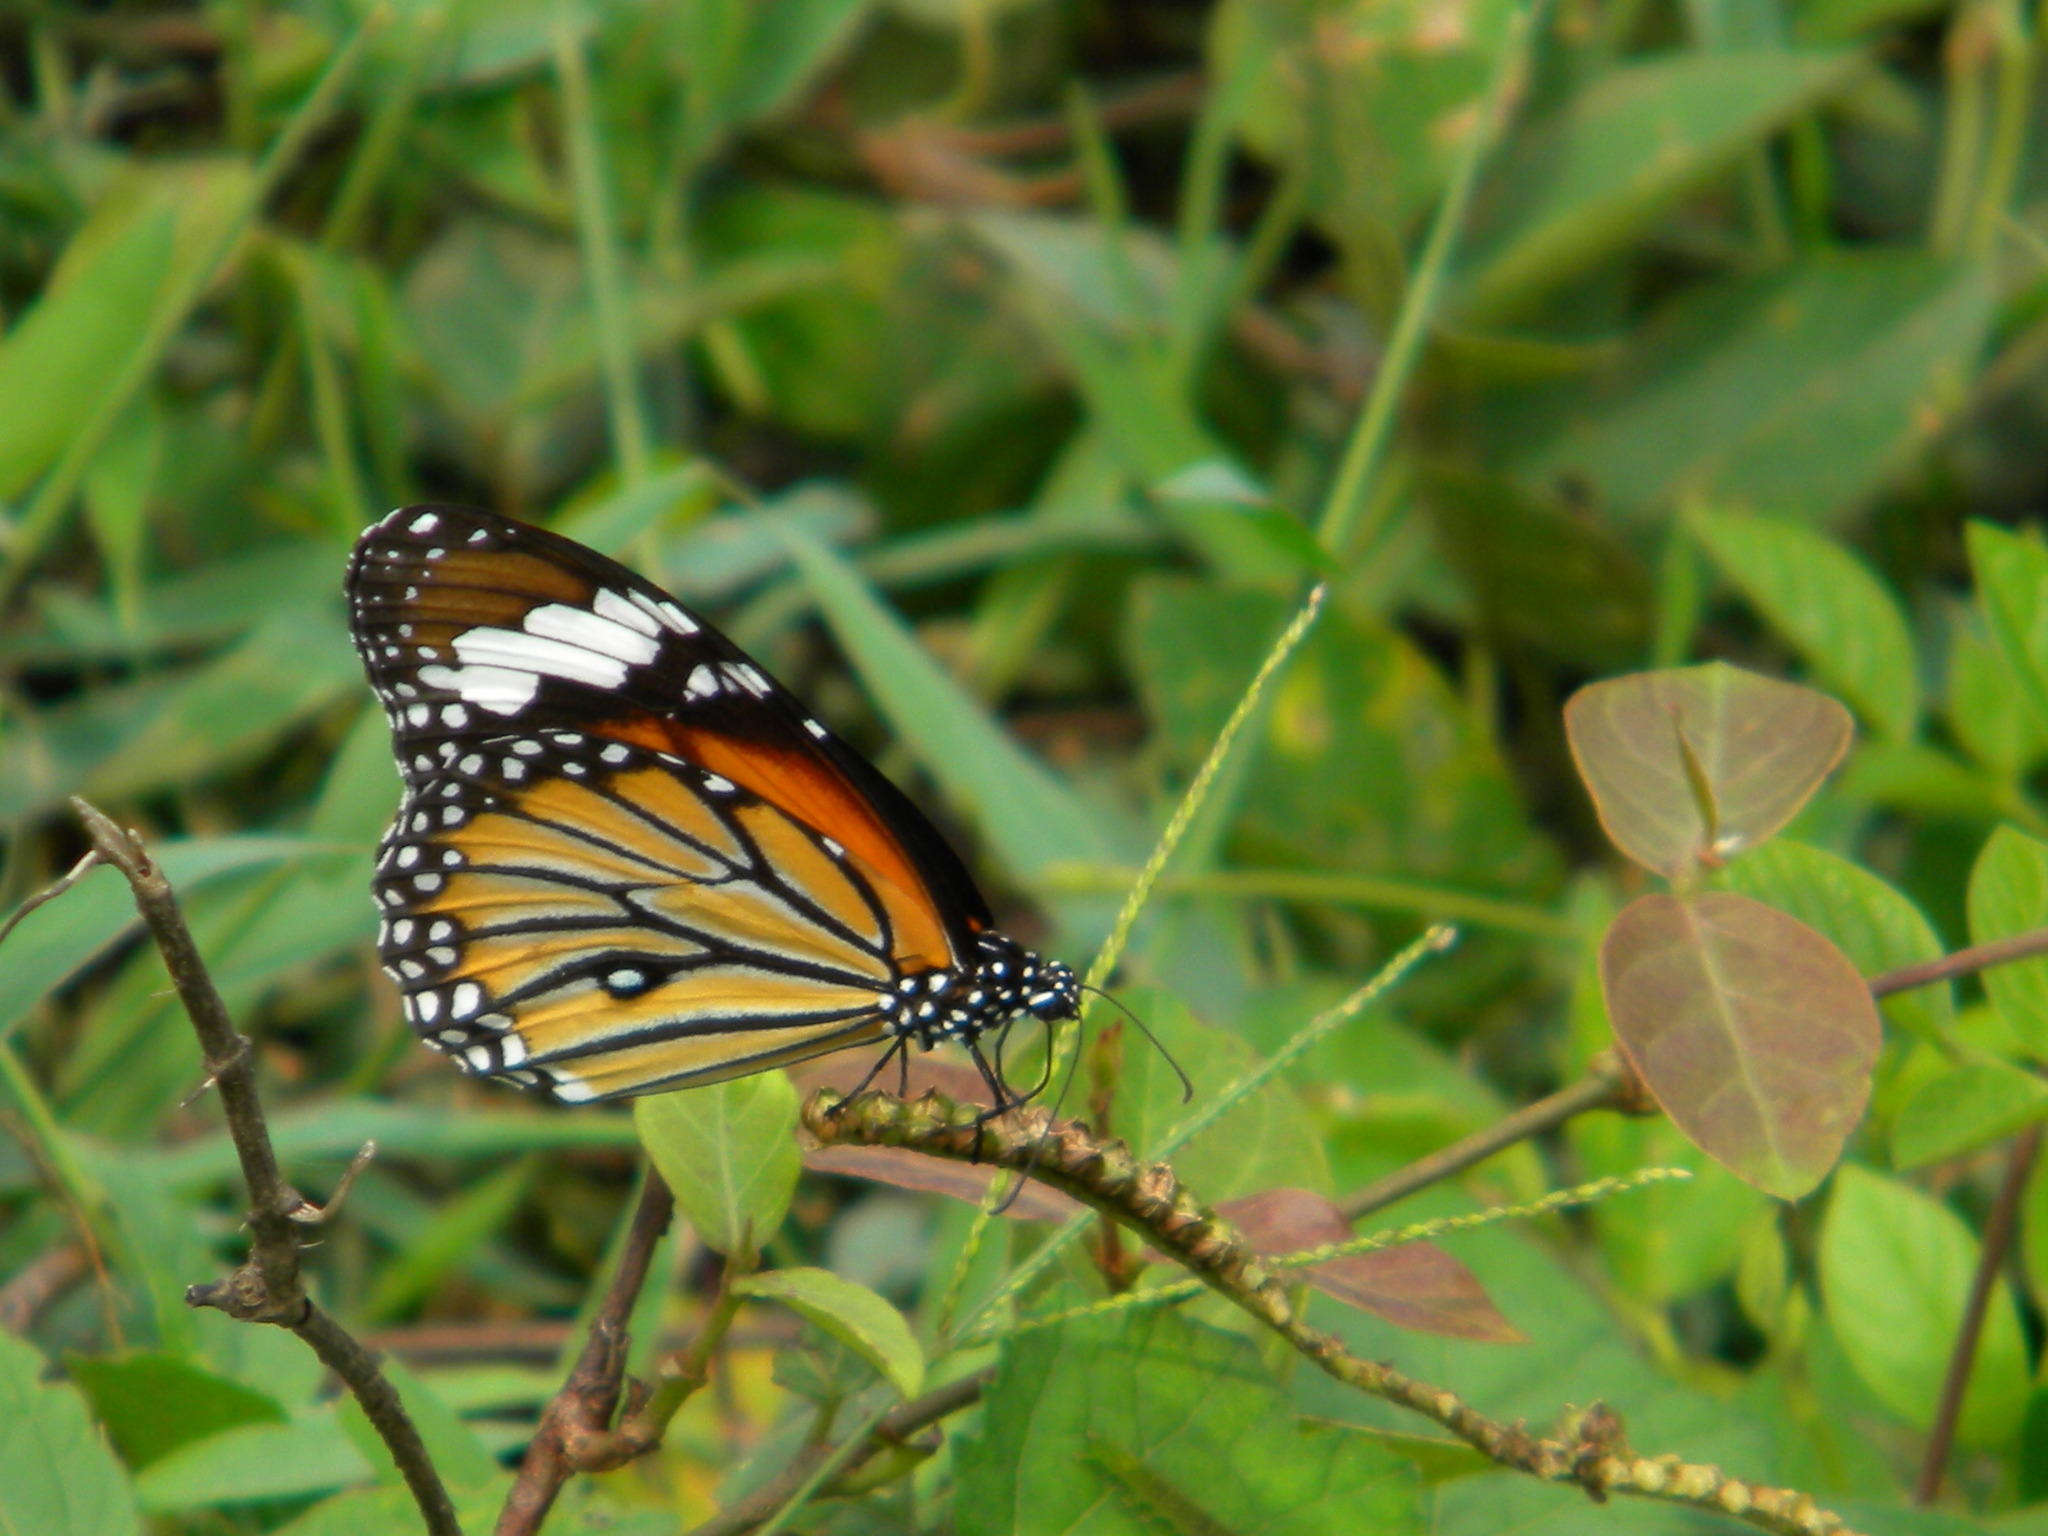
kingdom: Animalia
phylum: Arthropoda
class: Insecta
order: Lepidoptera
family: Nymphalidae
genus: Danaus
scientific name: Danaus genutia
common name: Common tiger butterfly
